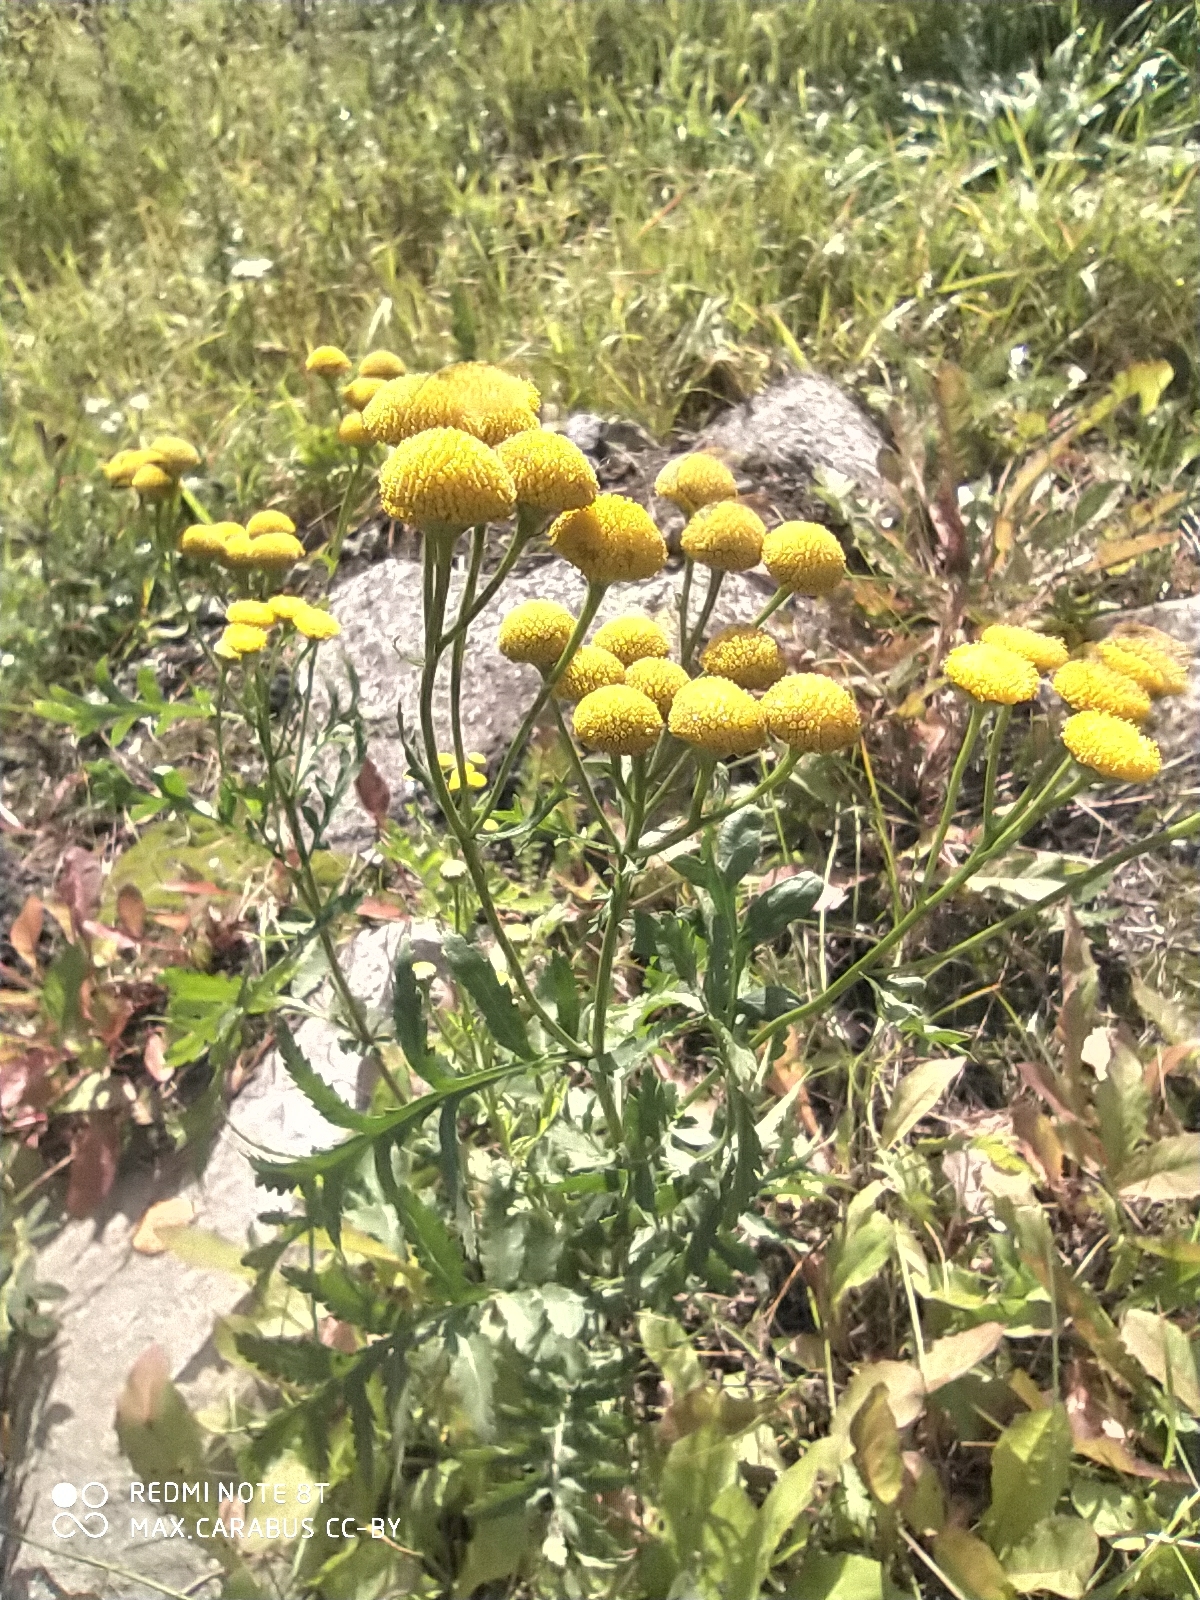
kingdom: Plantae
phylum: Tracheophyta
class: Magnoliopsida
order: Asterales
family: Asteraceae
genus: Tanacetum
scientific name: Tanacetum vulgare
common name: Common tansy
